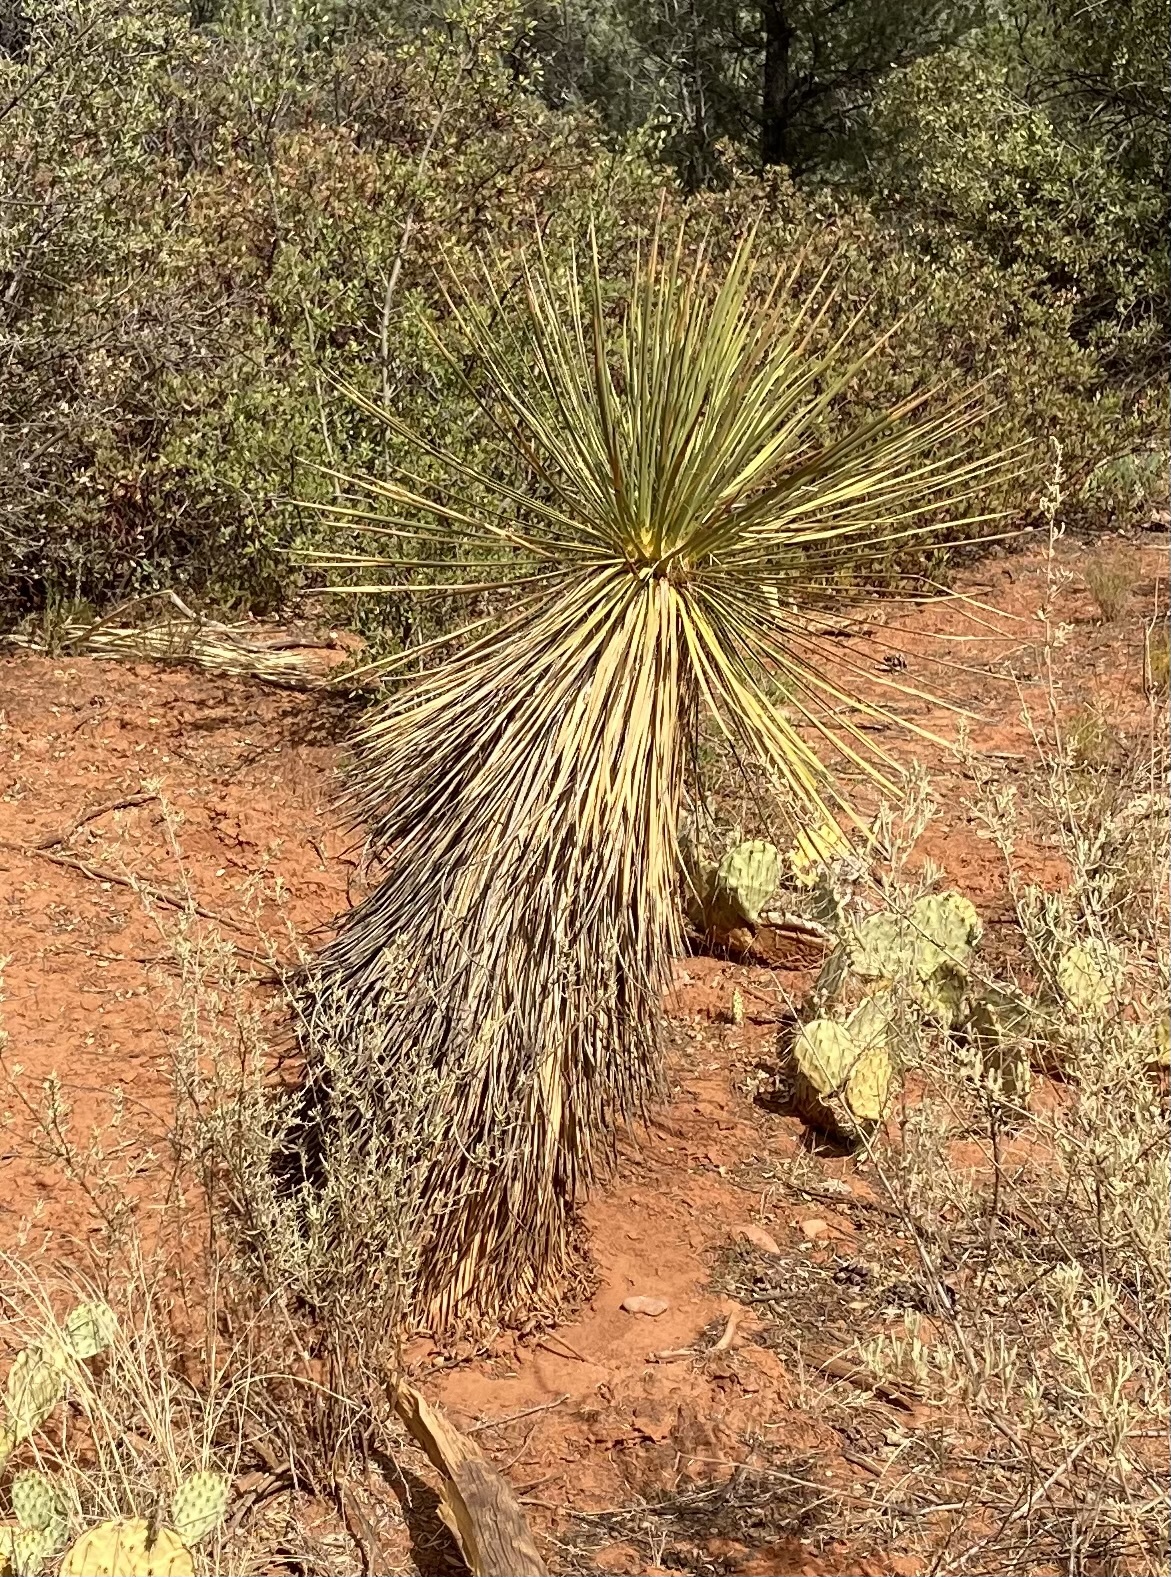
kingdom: Plantae
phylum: Tracheophyta
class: Liliopsida
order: Asparagales
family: Asparagaceae
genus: Yucca
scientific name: Yucca elata
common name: Palmella
